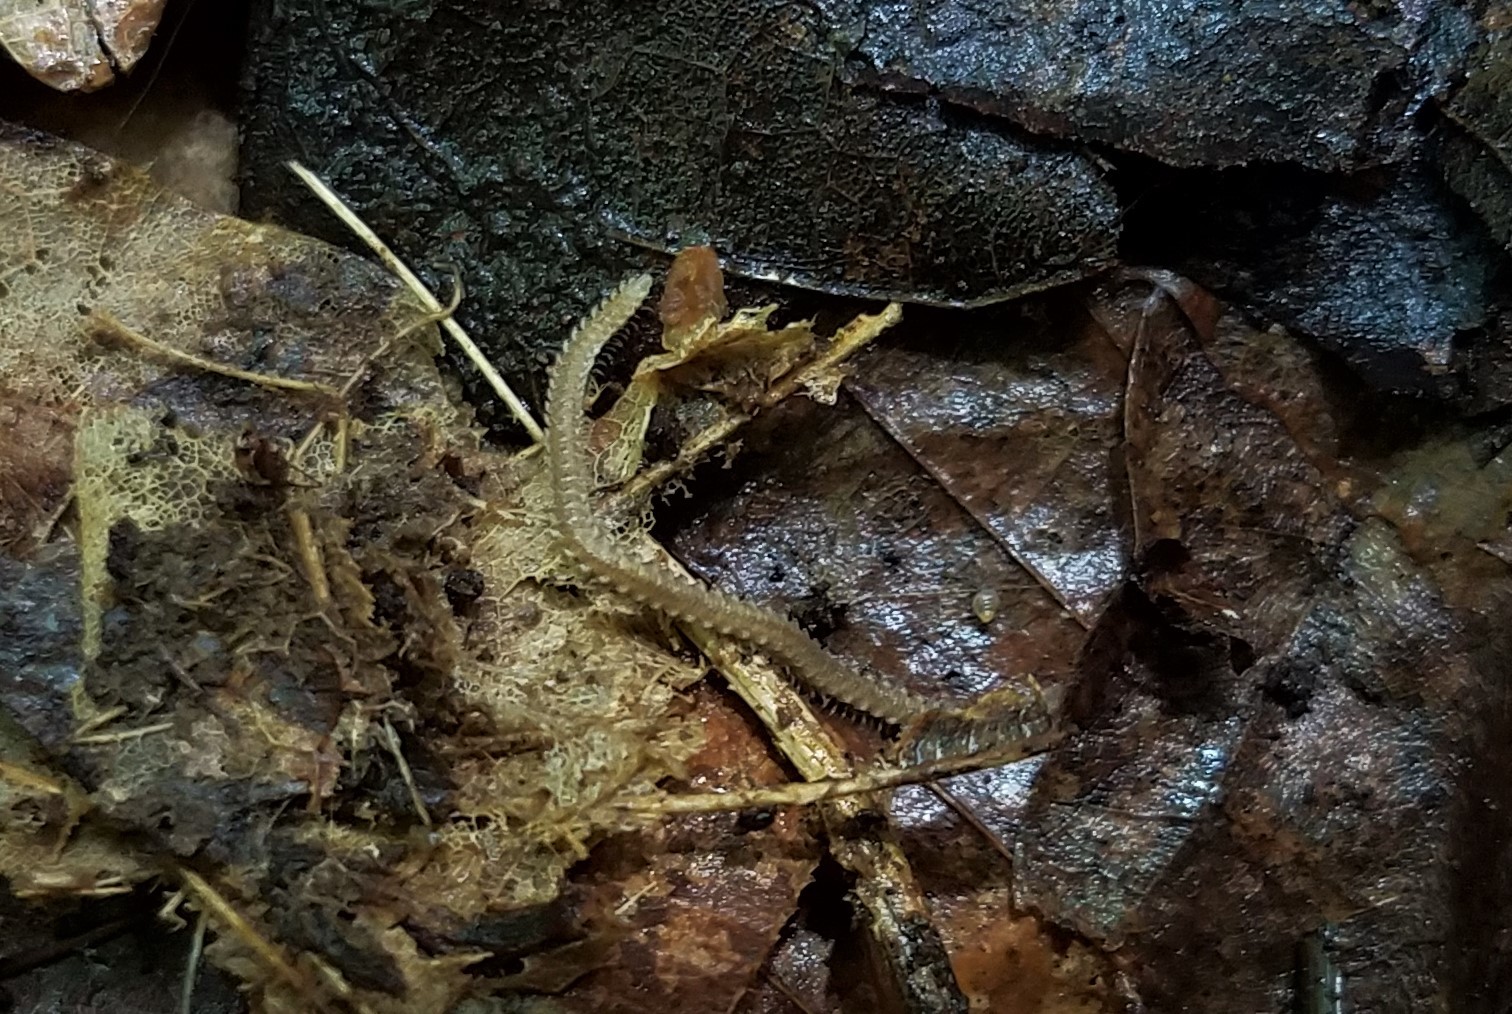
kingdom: Animalia
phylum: Arthropoda
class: Diplopoda
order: Platydesmida
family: Andrognathidae
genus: Andrognathus
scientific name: Andrognathus corticarius
